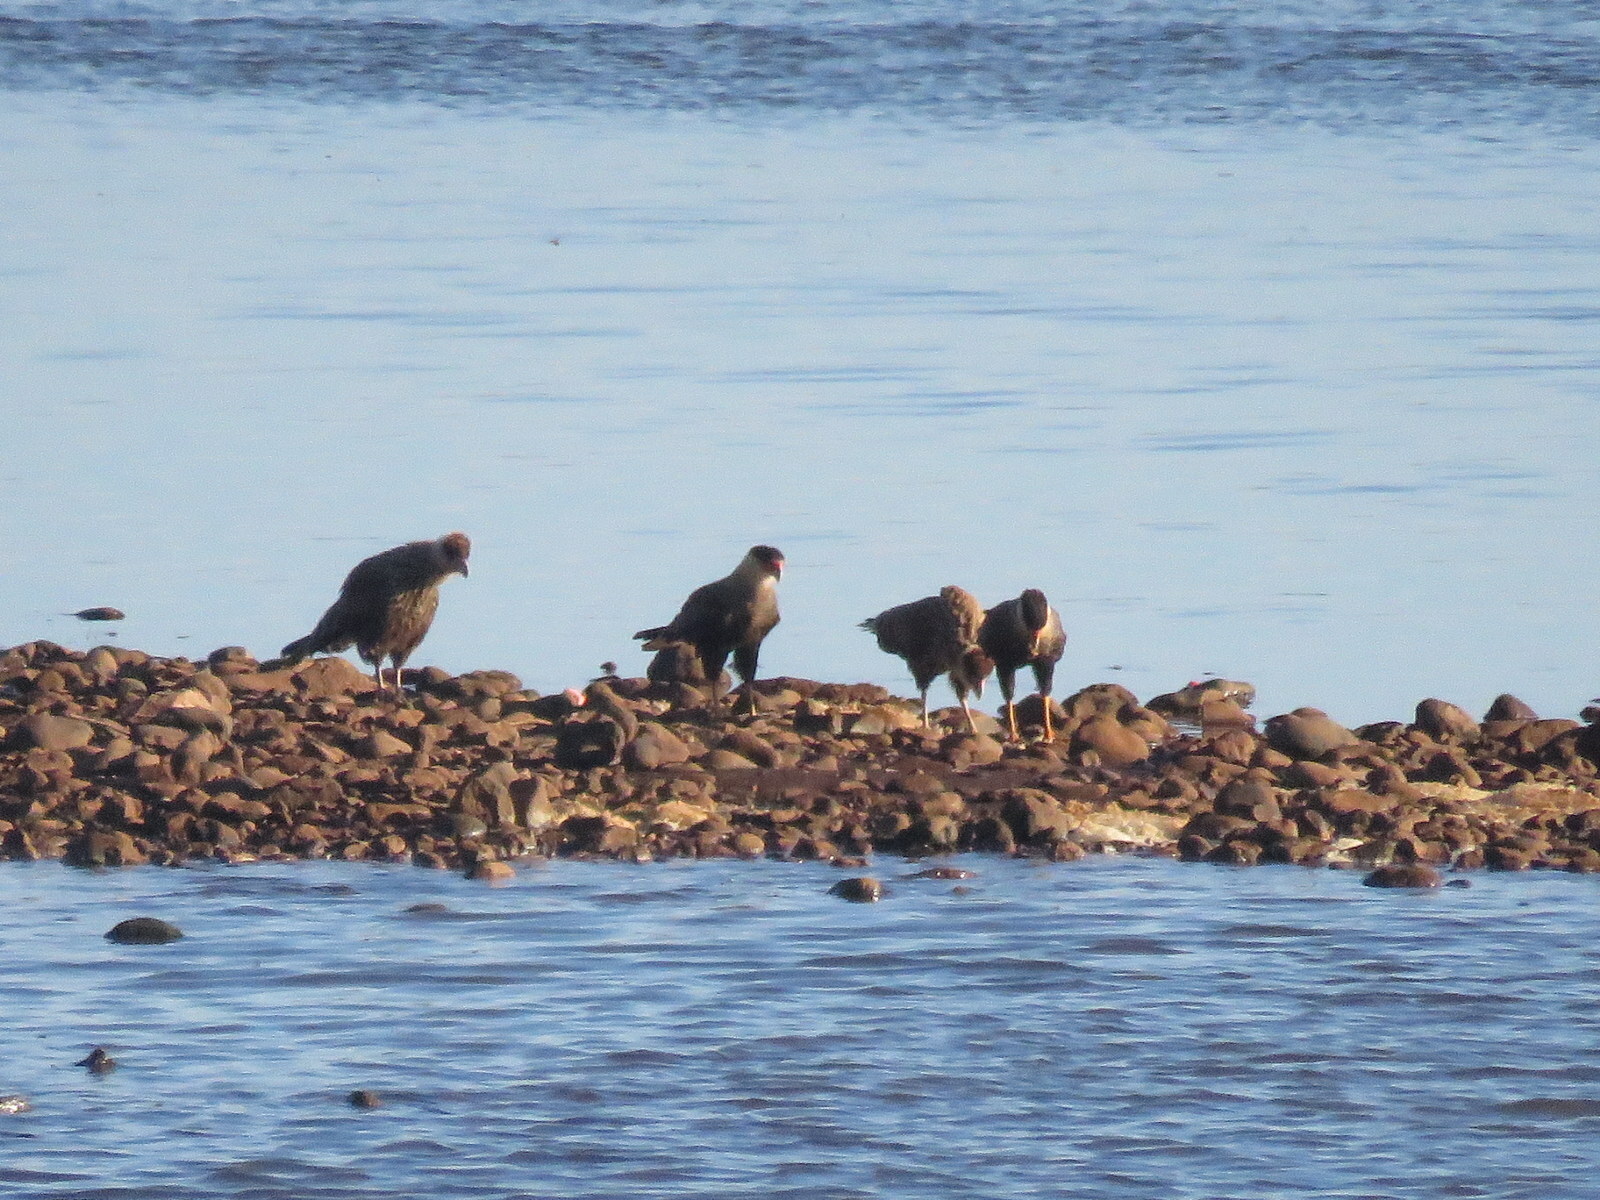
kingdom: Animalia
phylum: Chordata
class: Aves
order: Falconiformes
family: Falconidae
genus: Caracara
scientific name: Caracara plancus
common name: Southern caracara
